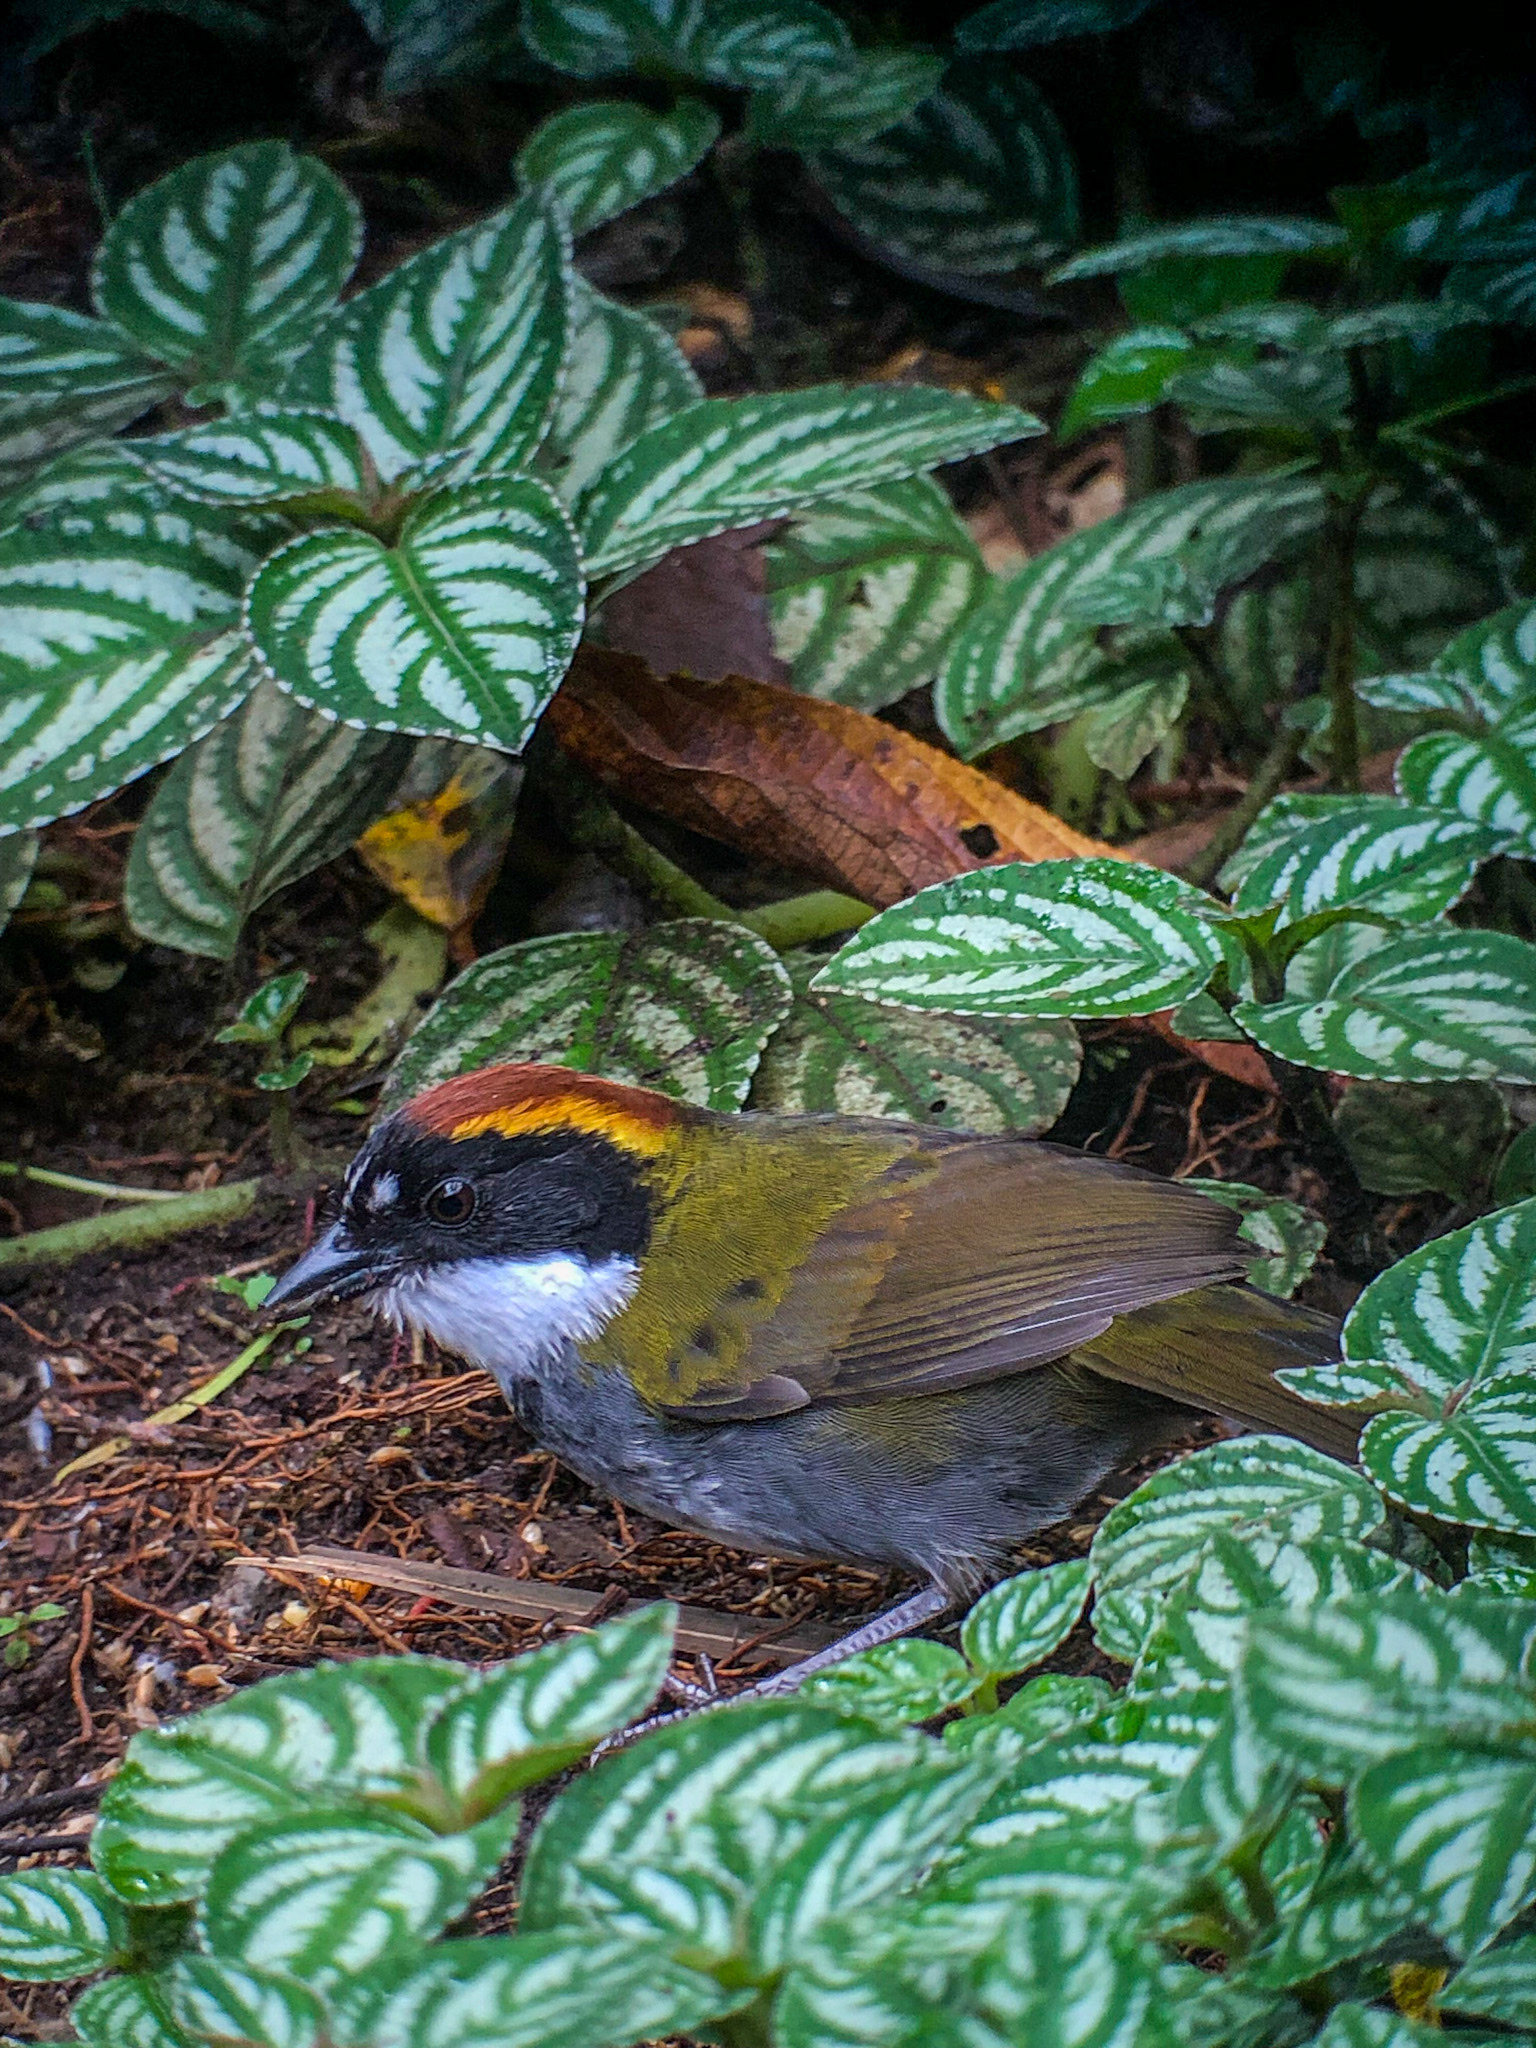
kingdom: Animalia
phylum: Chordata
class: Aves
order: Passeriformes
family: Passerellidae
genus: Arremon
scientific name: Arremon brunneinucha
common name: Chestnut-capped brushfinch
